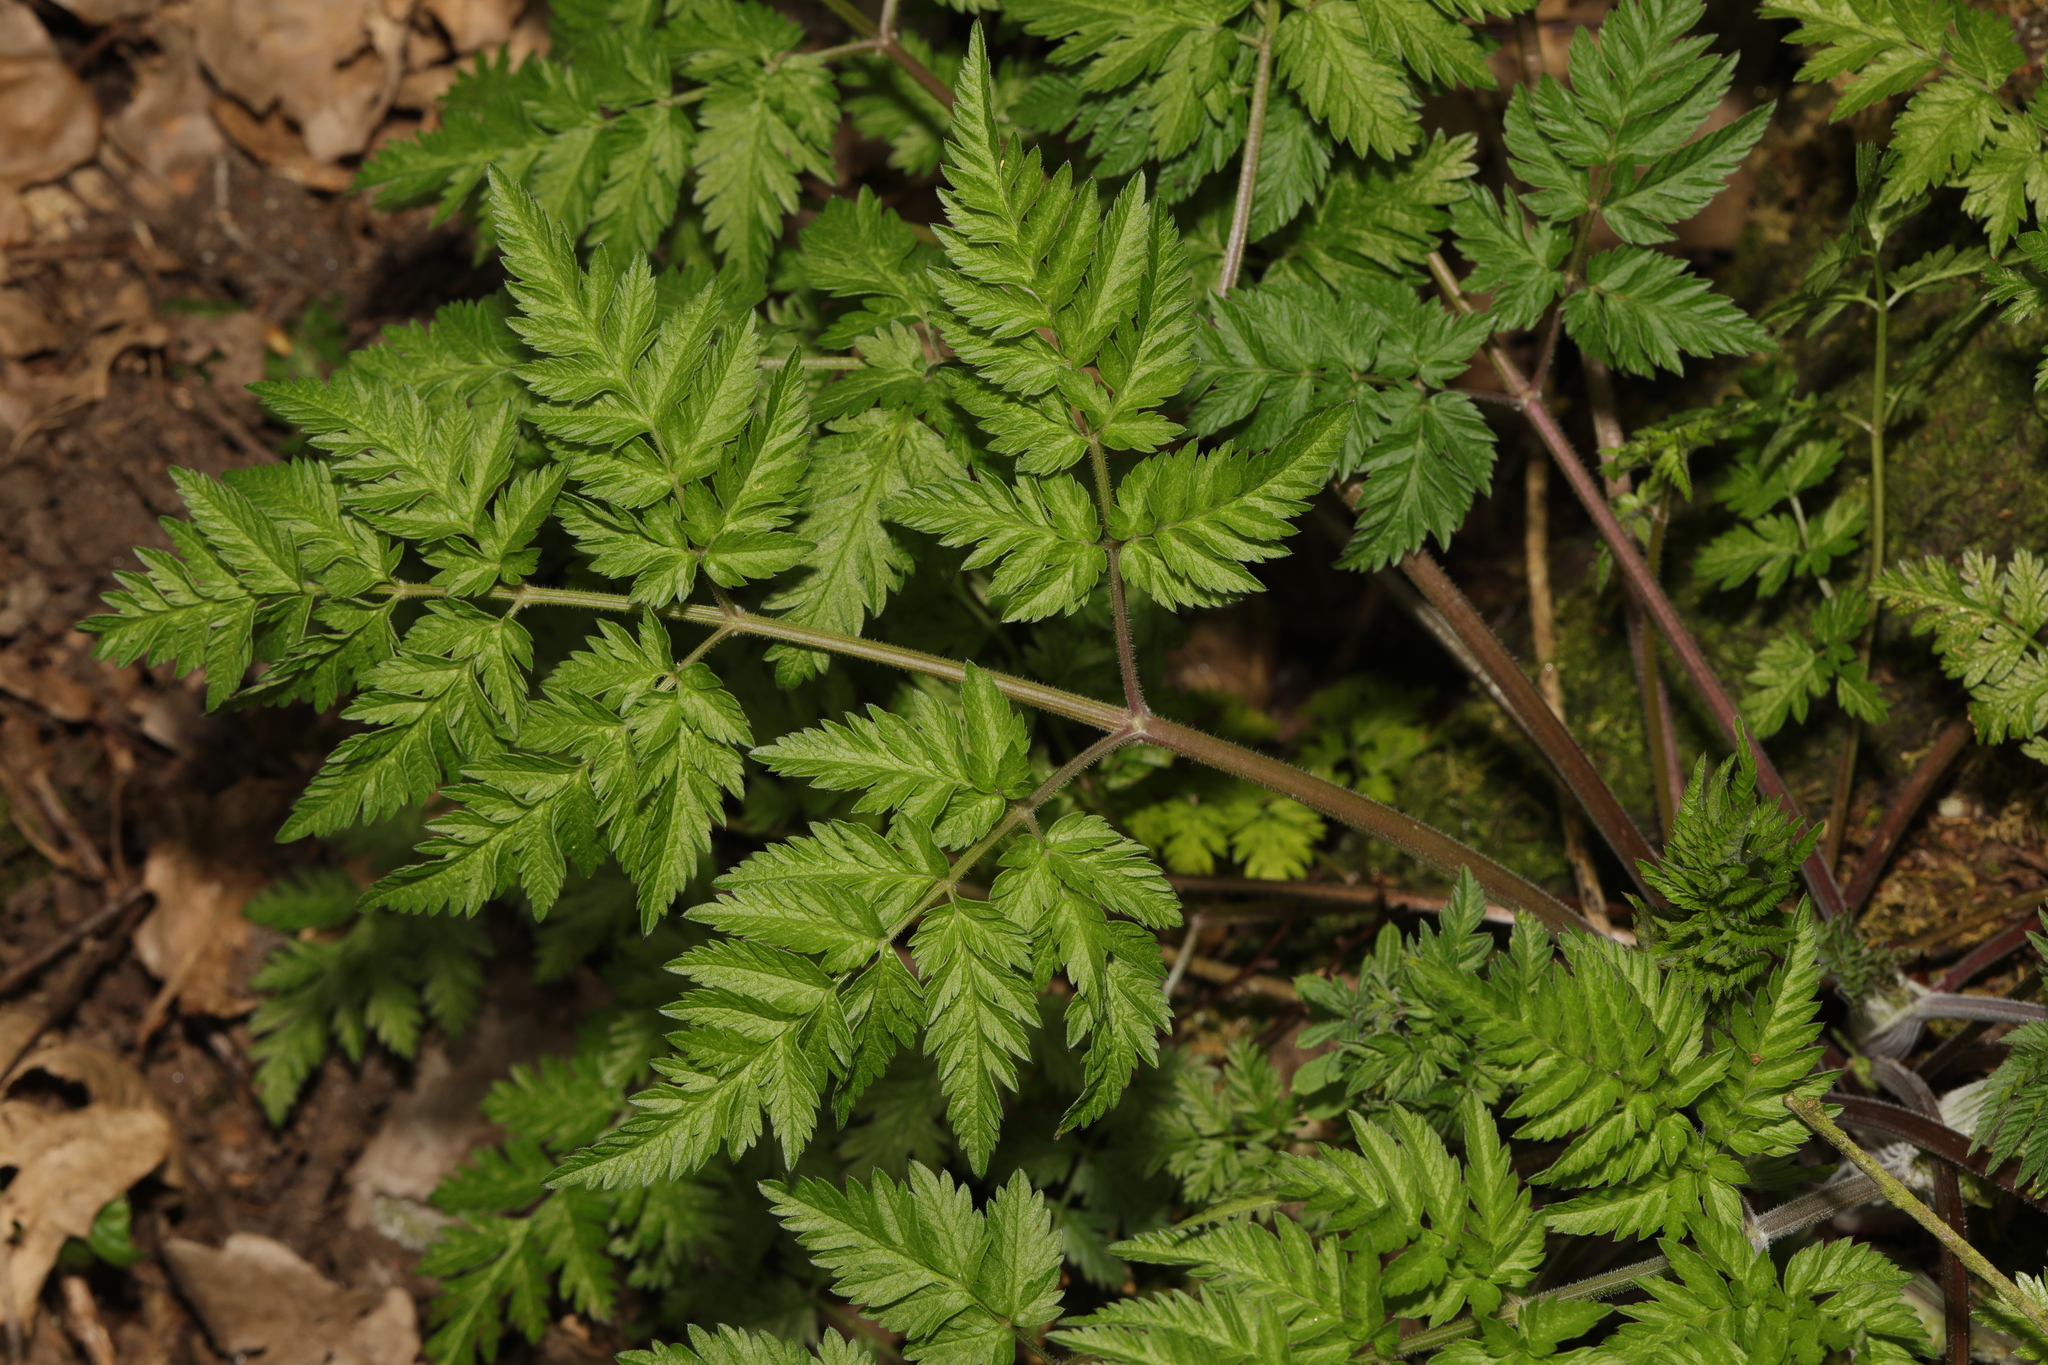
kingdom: Plantae
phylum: Tracheophyta
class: Magnoliopsida
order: Apiales
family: Apiaceae
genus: Anthriscus
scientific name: Anthriscus sylvestris
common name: Cow parsley
